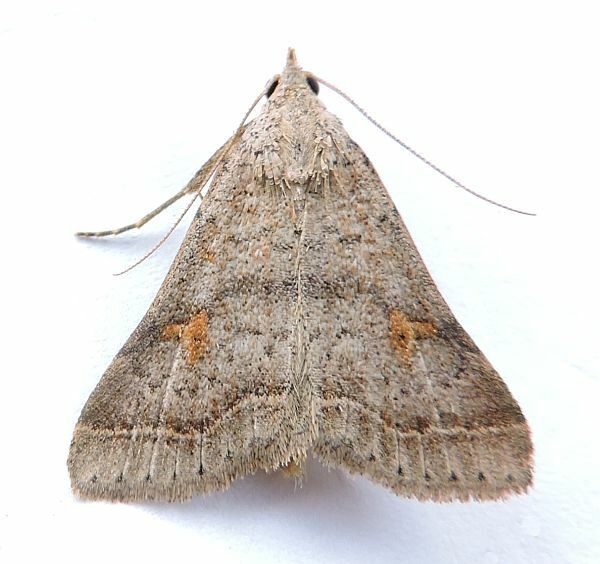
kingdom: Animalia
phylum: Arthropoda
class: Insecta
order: Lepidoptera
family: Erebidae
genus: Bleptina
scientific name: Bleptina caradrinalis
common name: Bent-winged owlet
